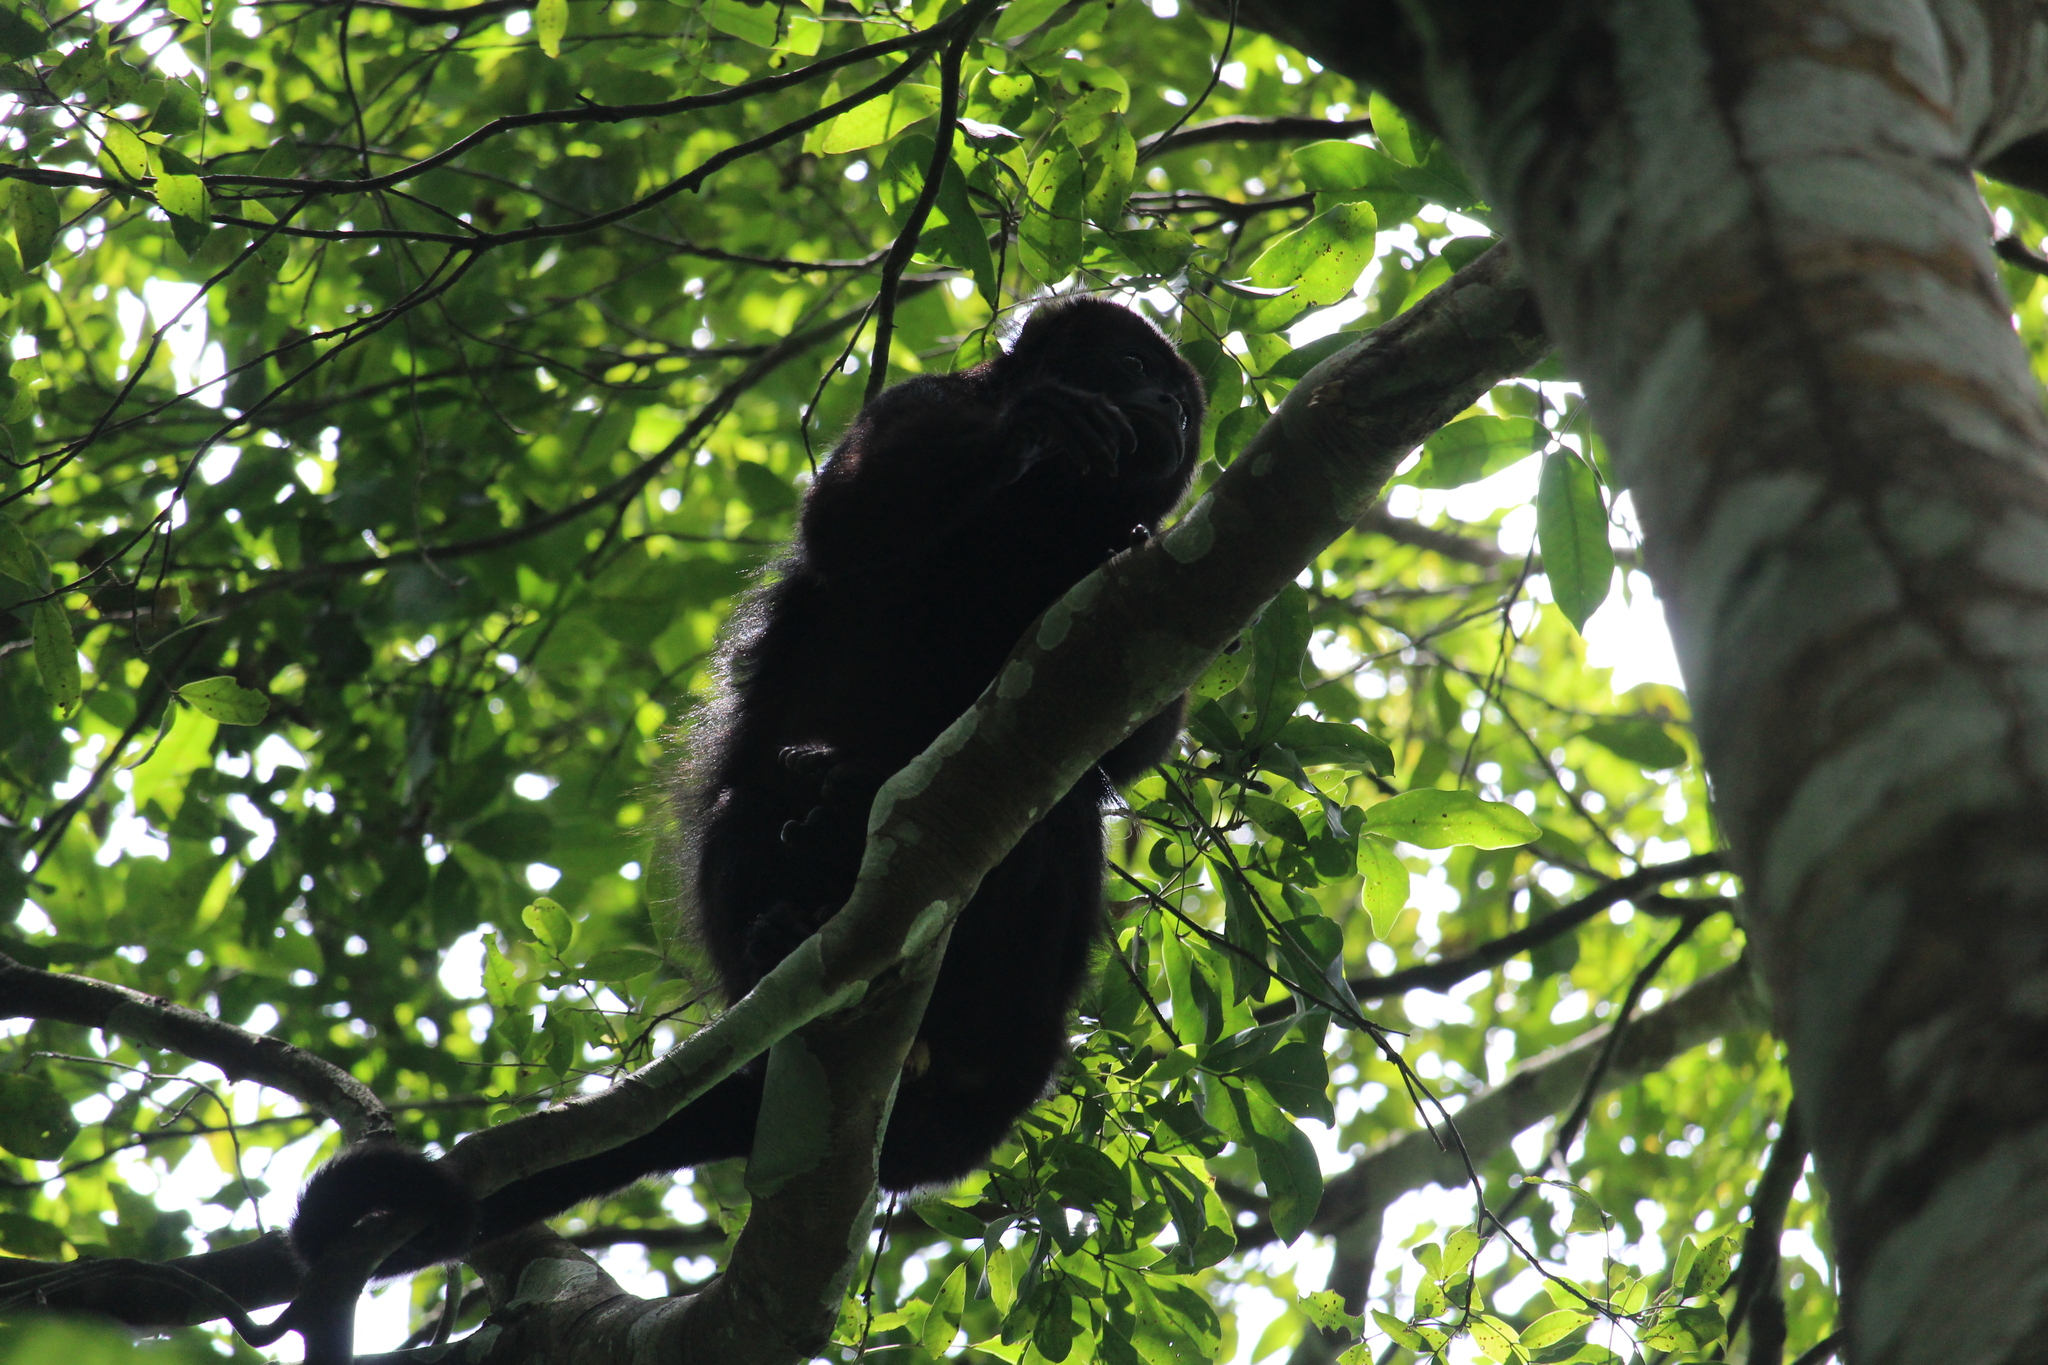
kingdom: Animalia
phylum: Chordata
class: Mammalia
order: Primates
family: Atelidae
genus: Alouatta
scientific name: Alouatta pigra
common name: Guatemalan black howler
